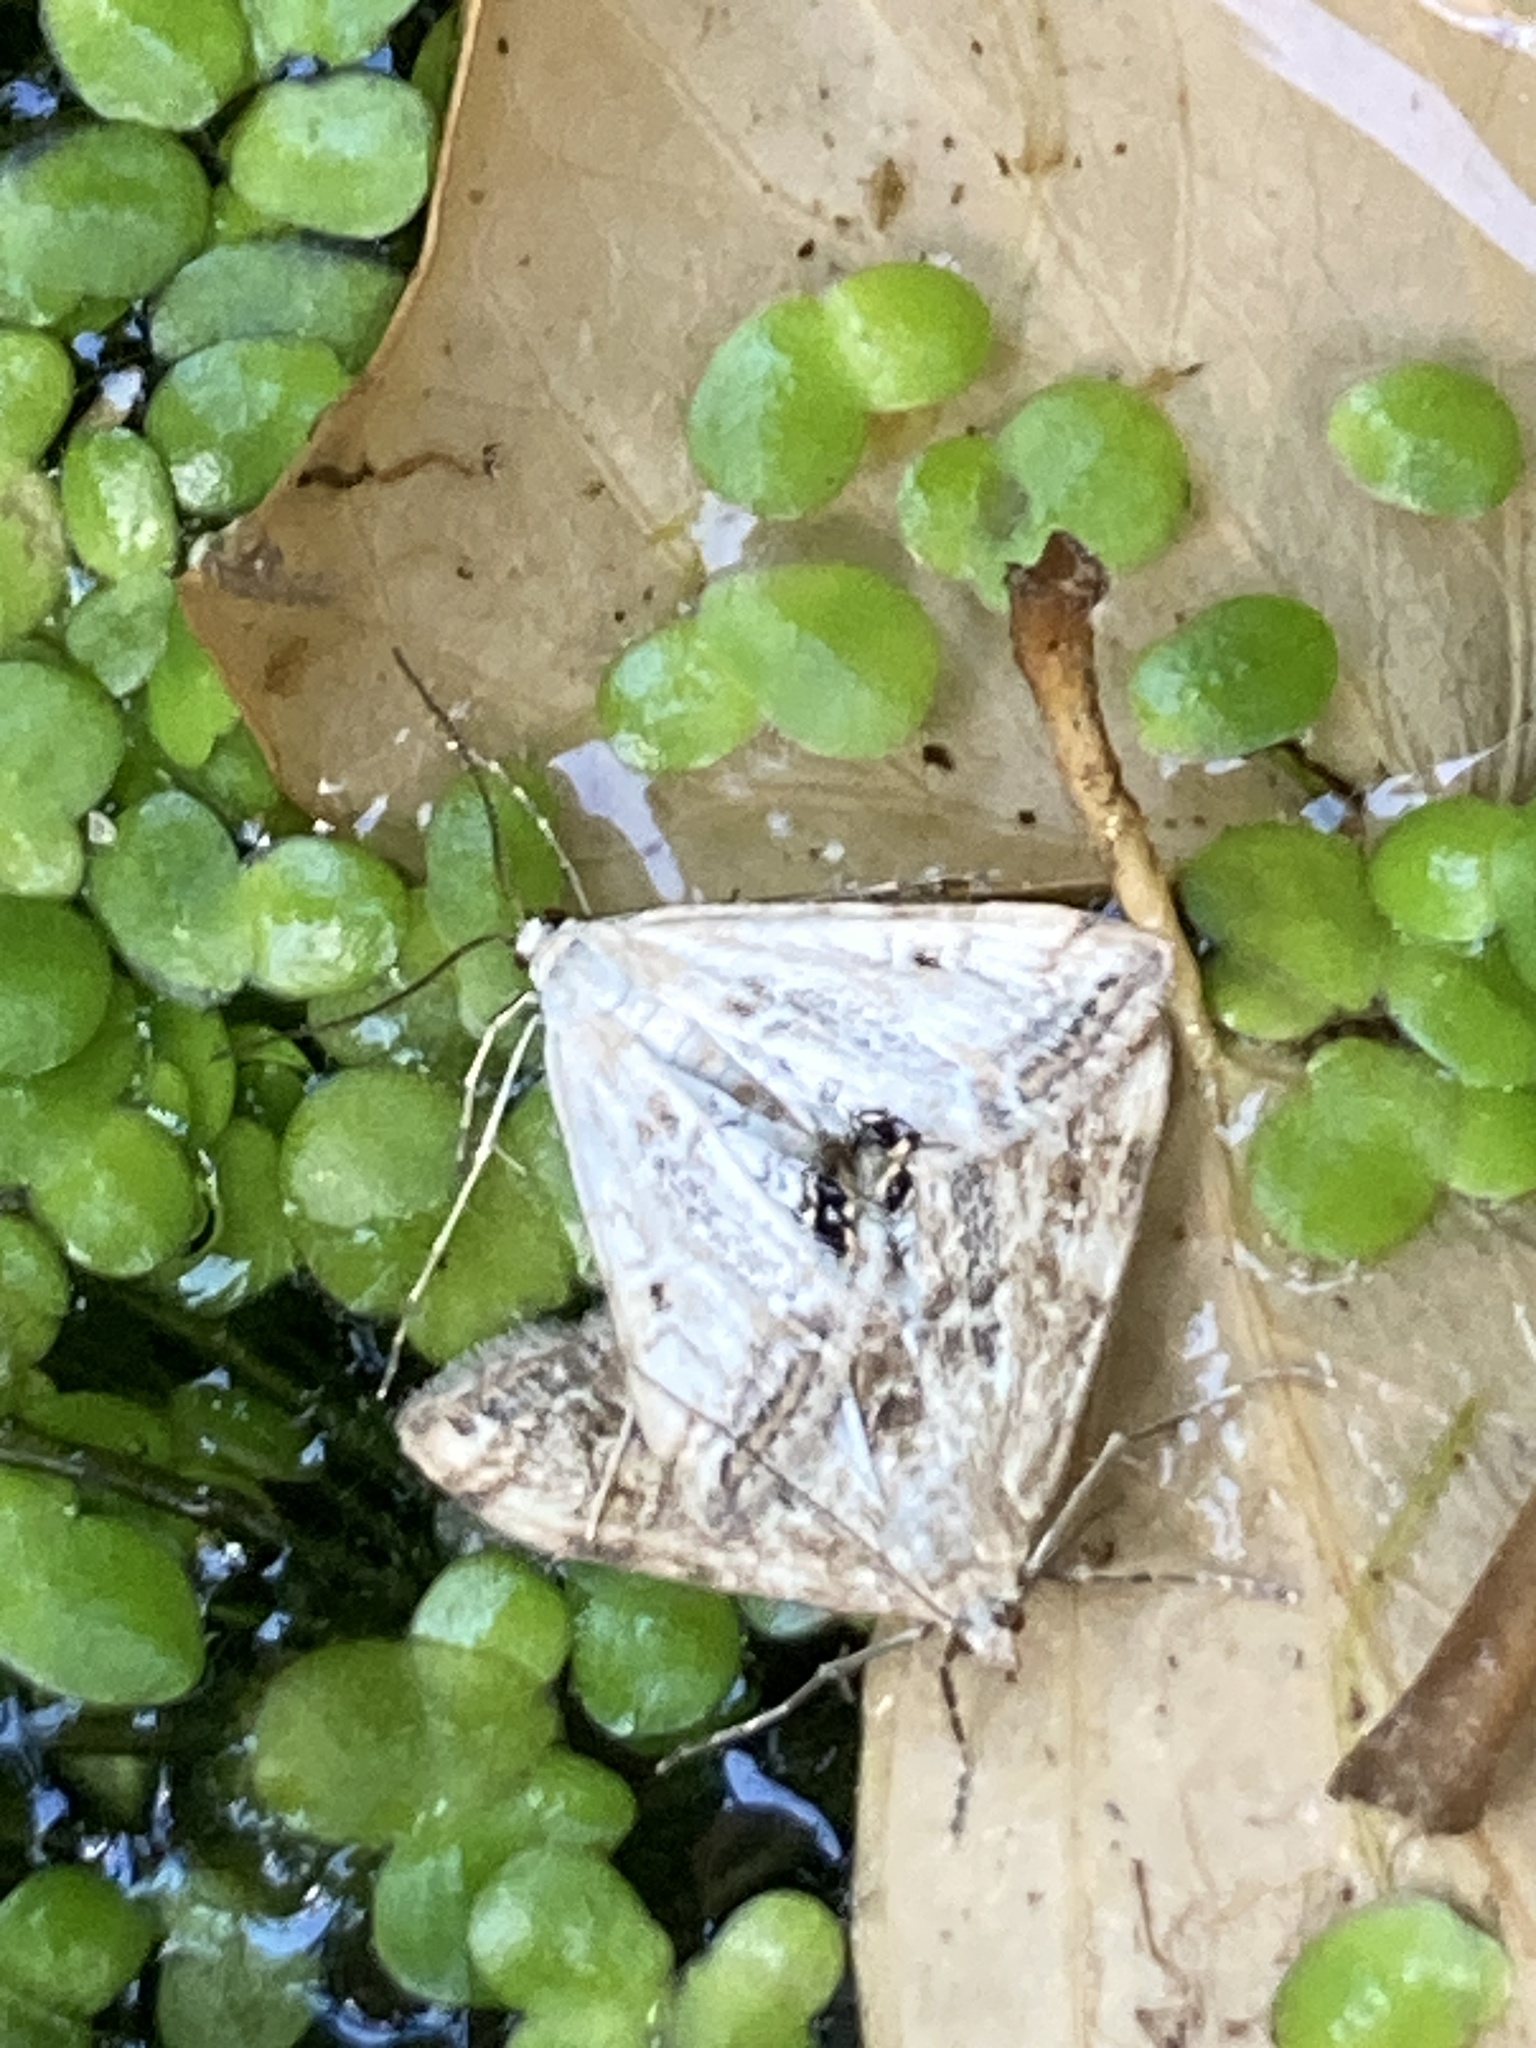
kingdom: Animalia
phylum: Arthropoda
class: Insecta
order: Lepidoptera
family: Crambidae
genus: Cataclysta
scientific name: Cataclysta lemnata
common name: Small china-mark
